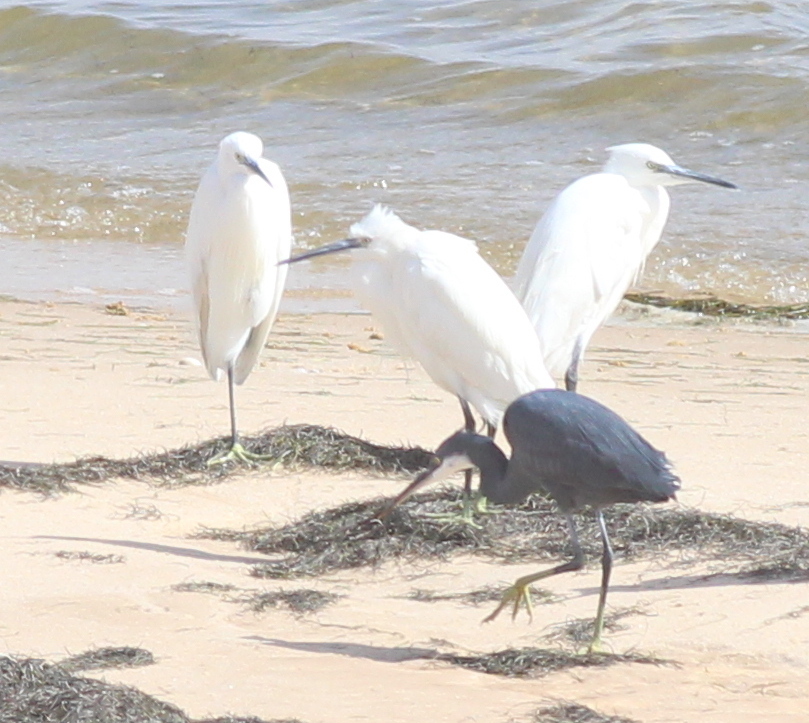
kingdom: Animalia
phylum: Chordata
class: Aves
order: Pelecaniformes
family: Ardeidae
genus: Egretta
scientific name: Egretta gularis
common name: Western reef-heron
